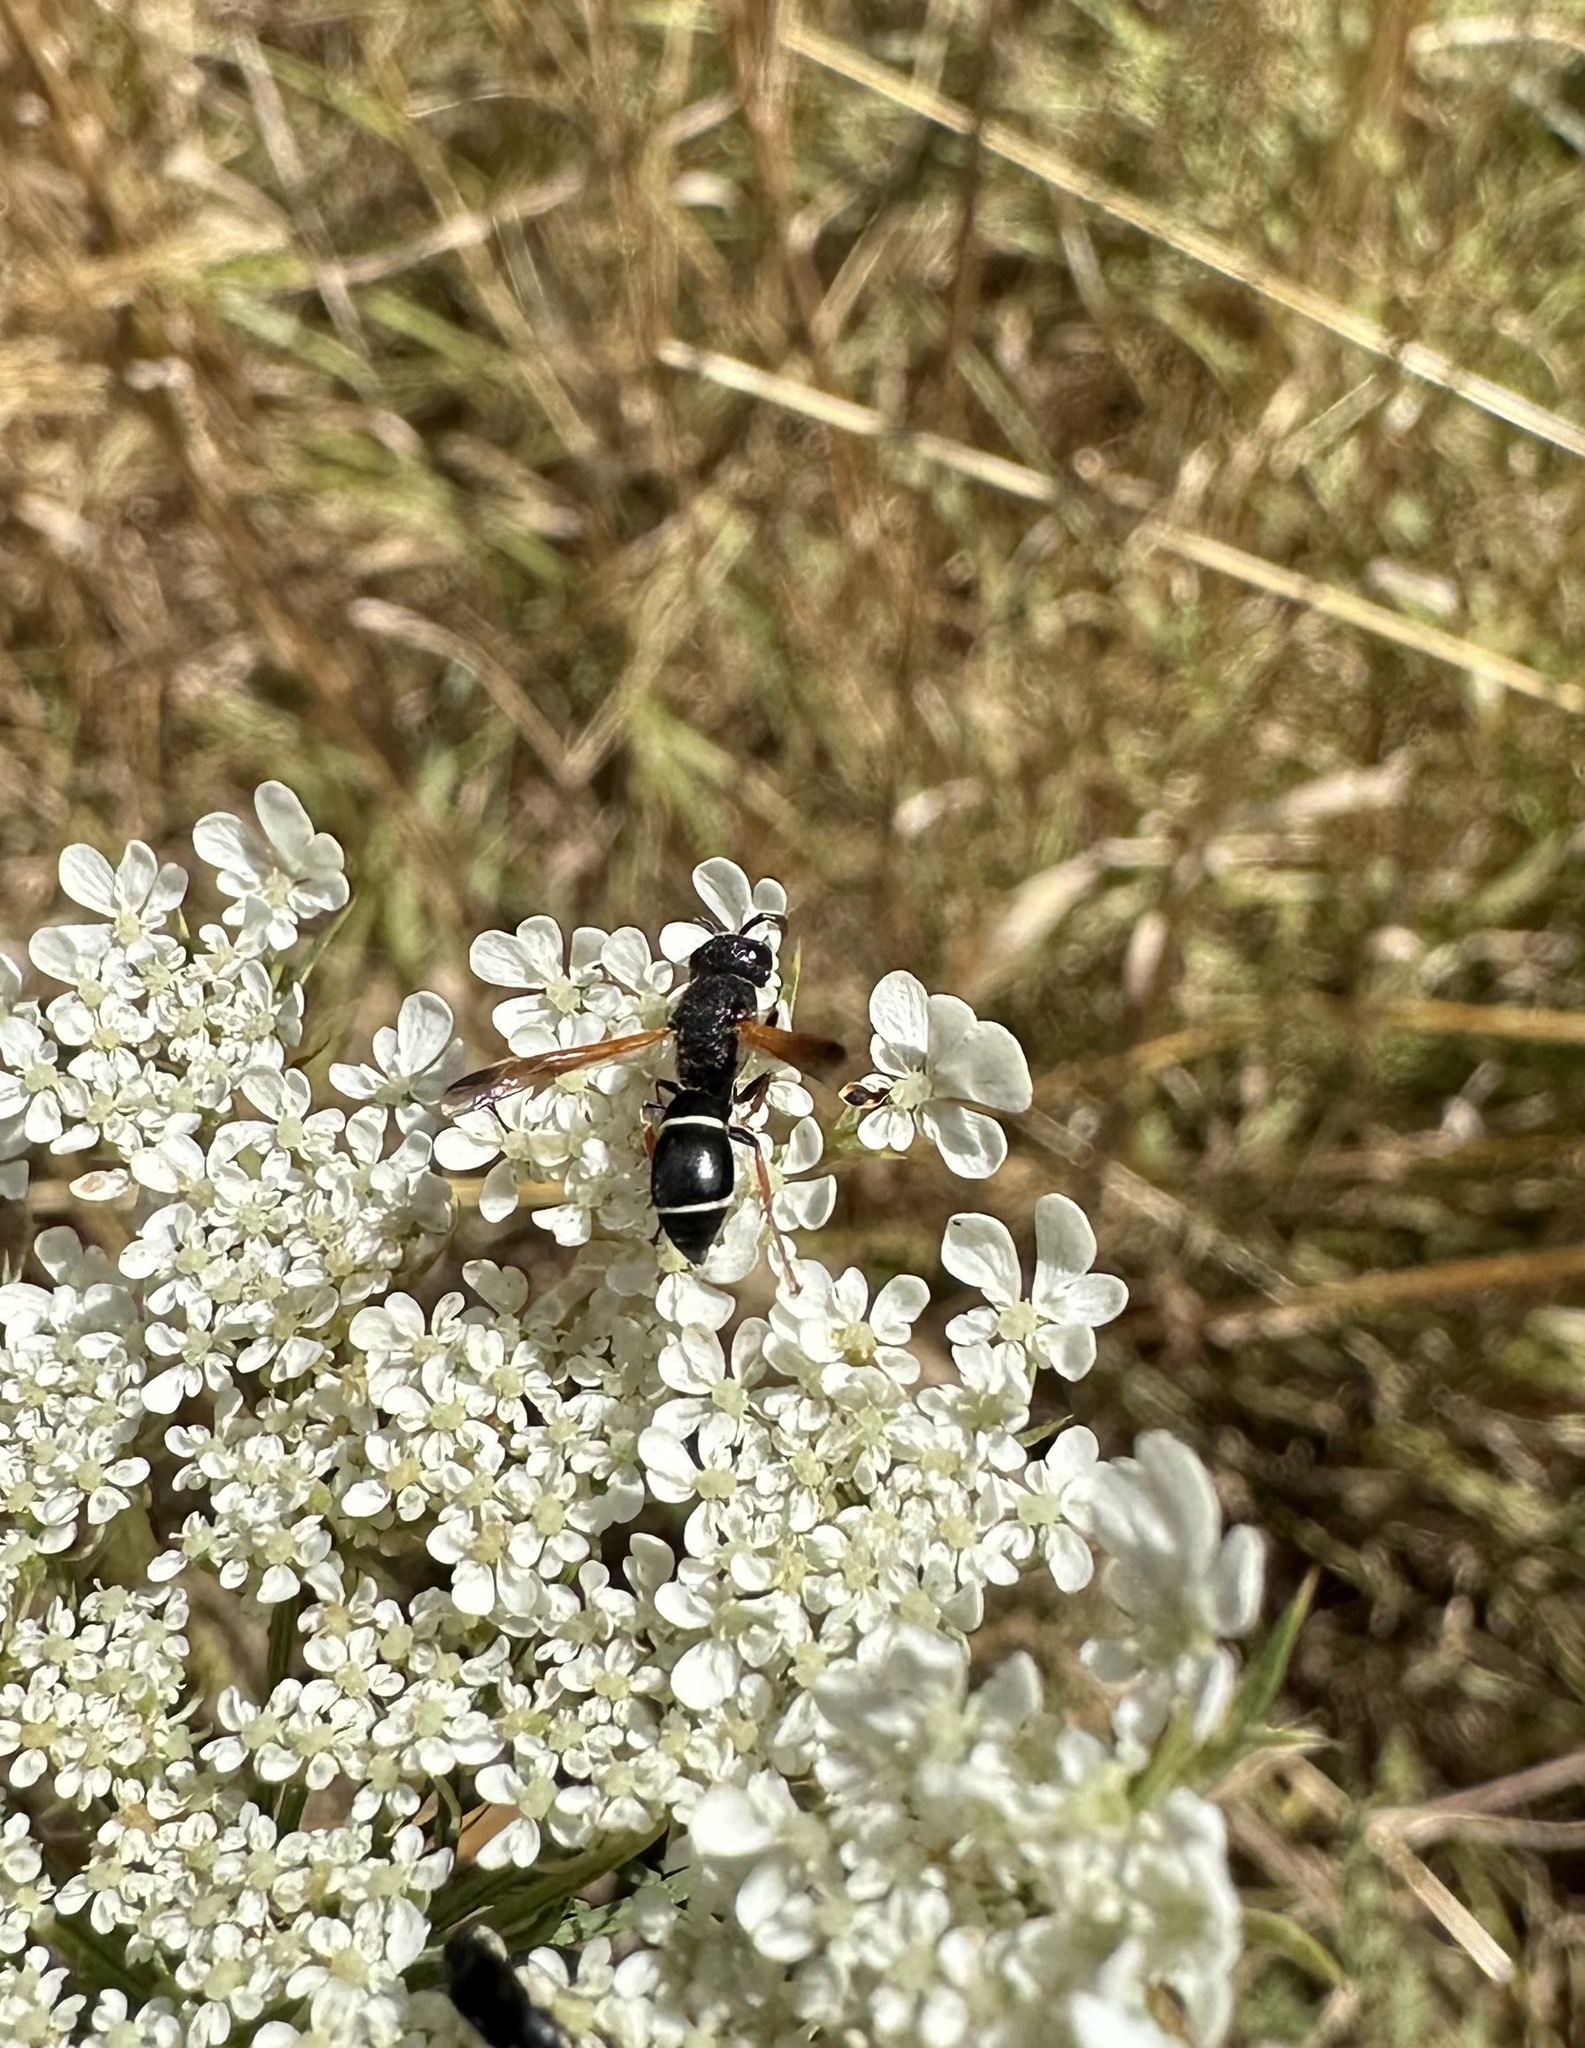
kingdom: Animalia
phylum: Arthropoda
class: Insecta
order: Hymenoptera
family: Eumenidae
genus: Ancistroceroides
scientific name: Ancistroceroides ambiguus
